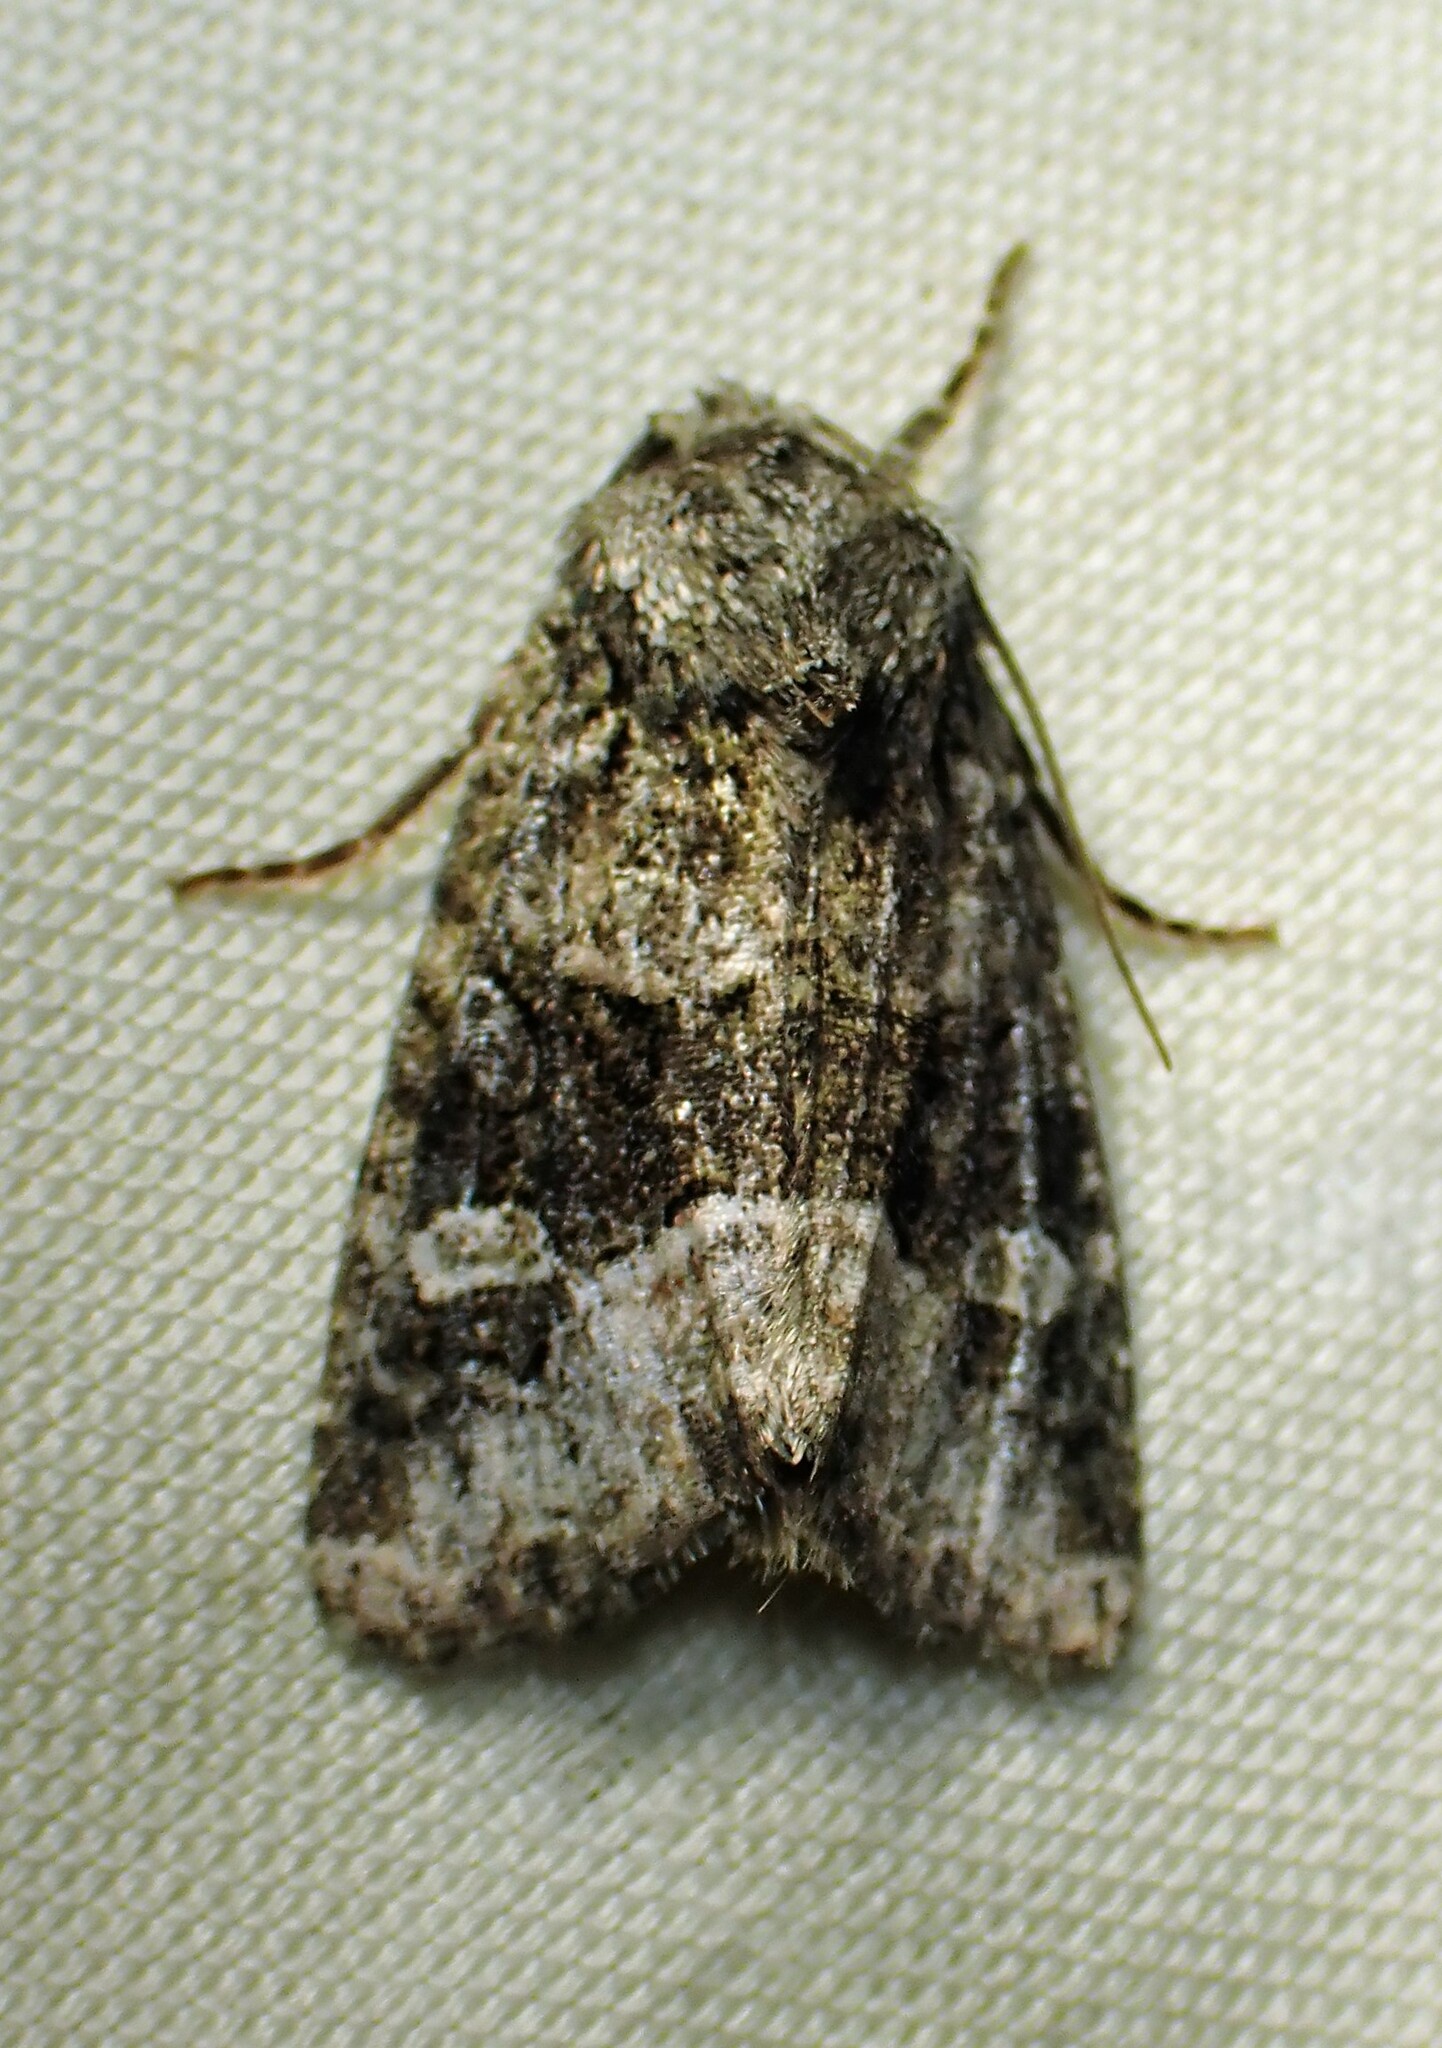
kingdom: Animalia
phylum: Arthropoda
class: Insecta
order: Lepidoptera
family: Noctuidae
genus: Lacinipolia
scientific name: Lacinipolia olivacea
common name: Olive arches moth
